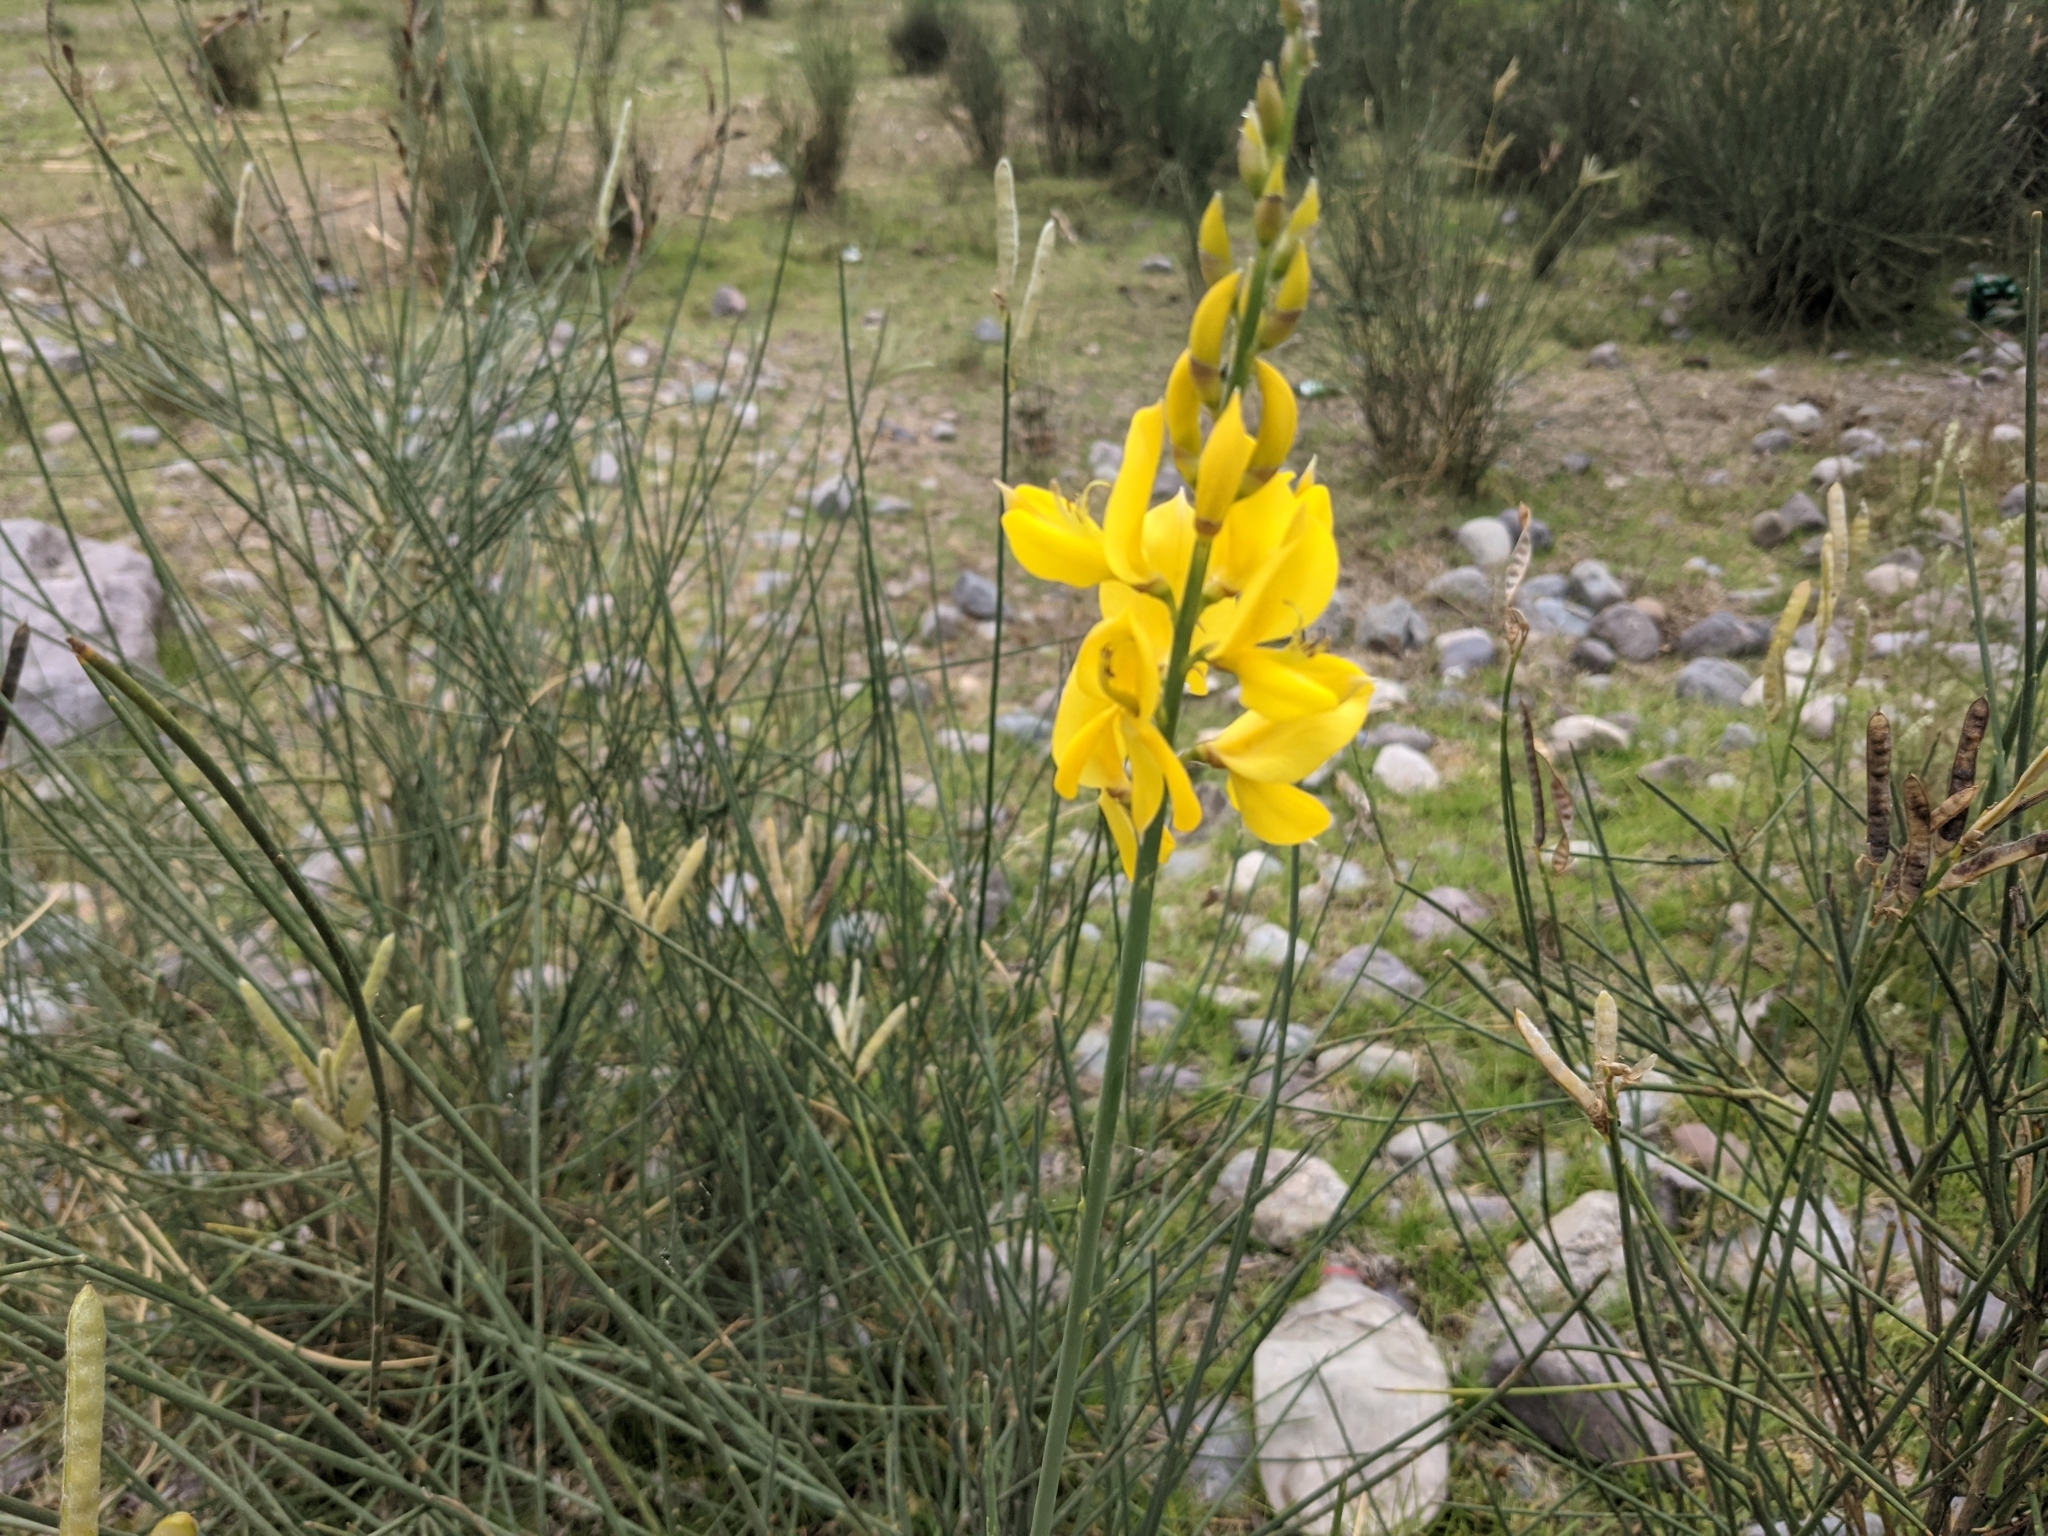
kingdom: Plantae
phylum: Tracheophyta
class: Magnoliopsida
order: Fabales
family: Fabaceae
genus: Spartium
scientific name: Spartium junceum
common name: Spanish broom
